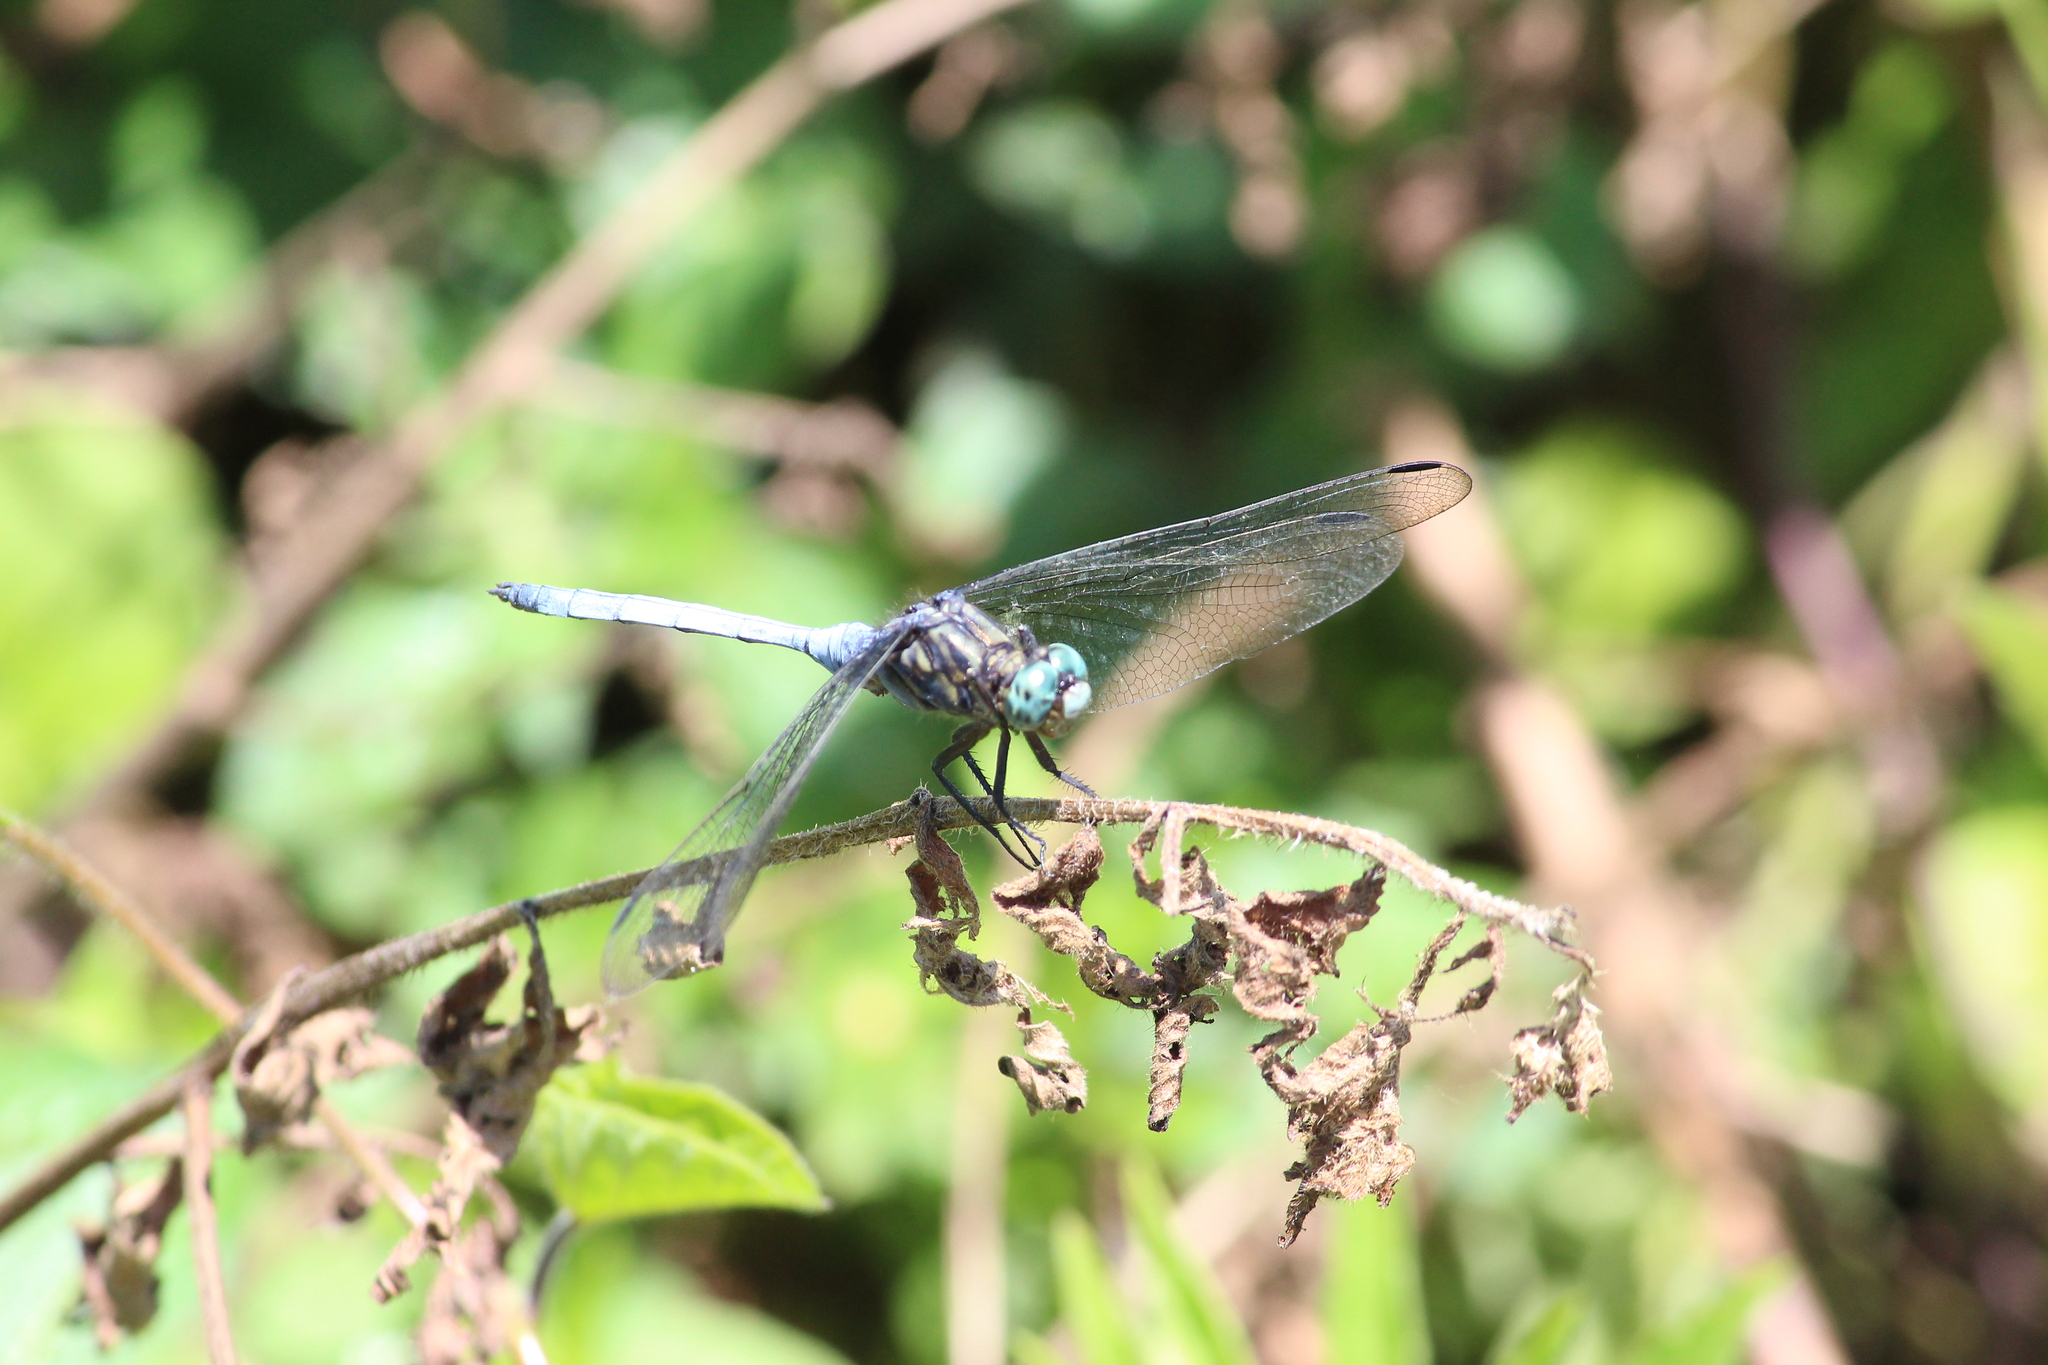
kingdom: Animalia
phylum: Arthropoda
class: Insecta
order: Odonata
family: Libellulidae
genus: Orthetrum
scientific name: Orthetrum julia
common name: Julia skimmer
